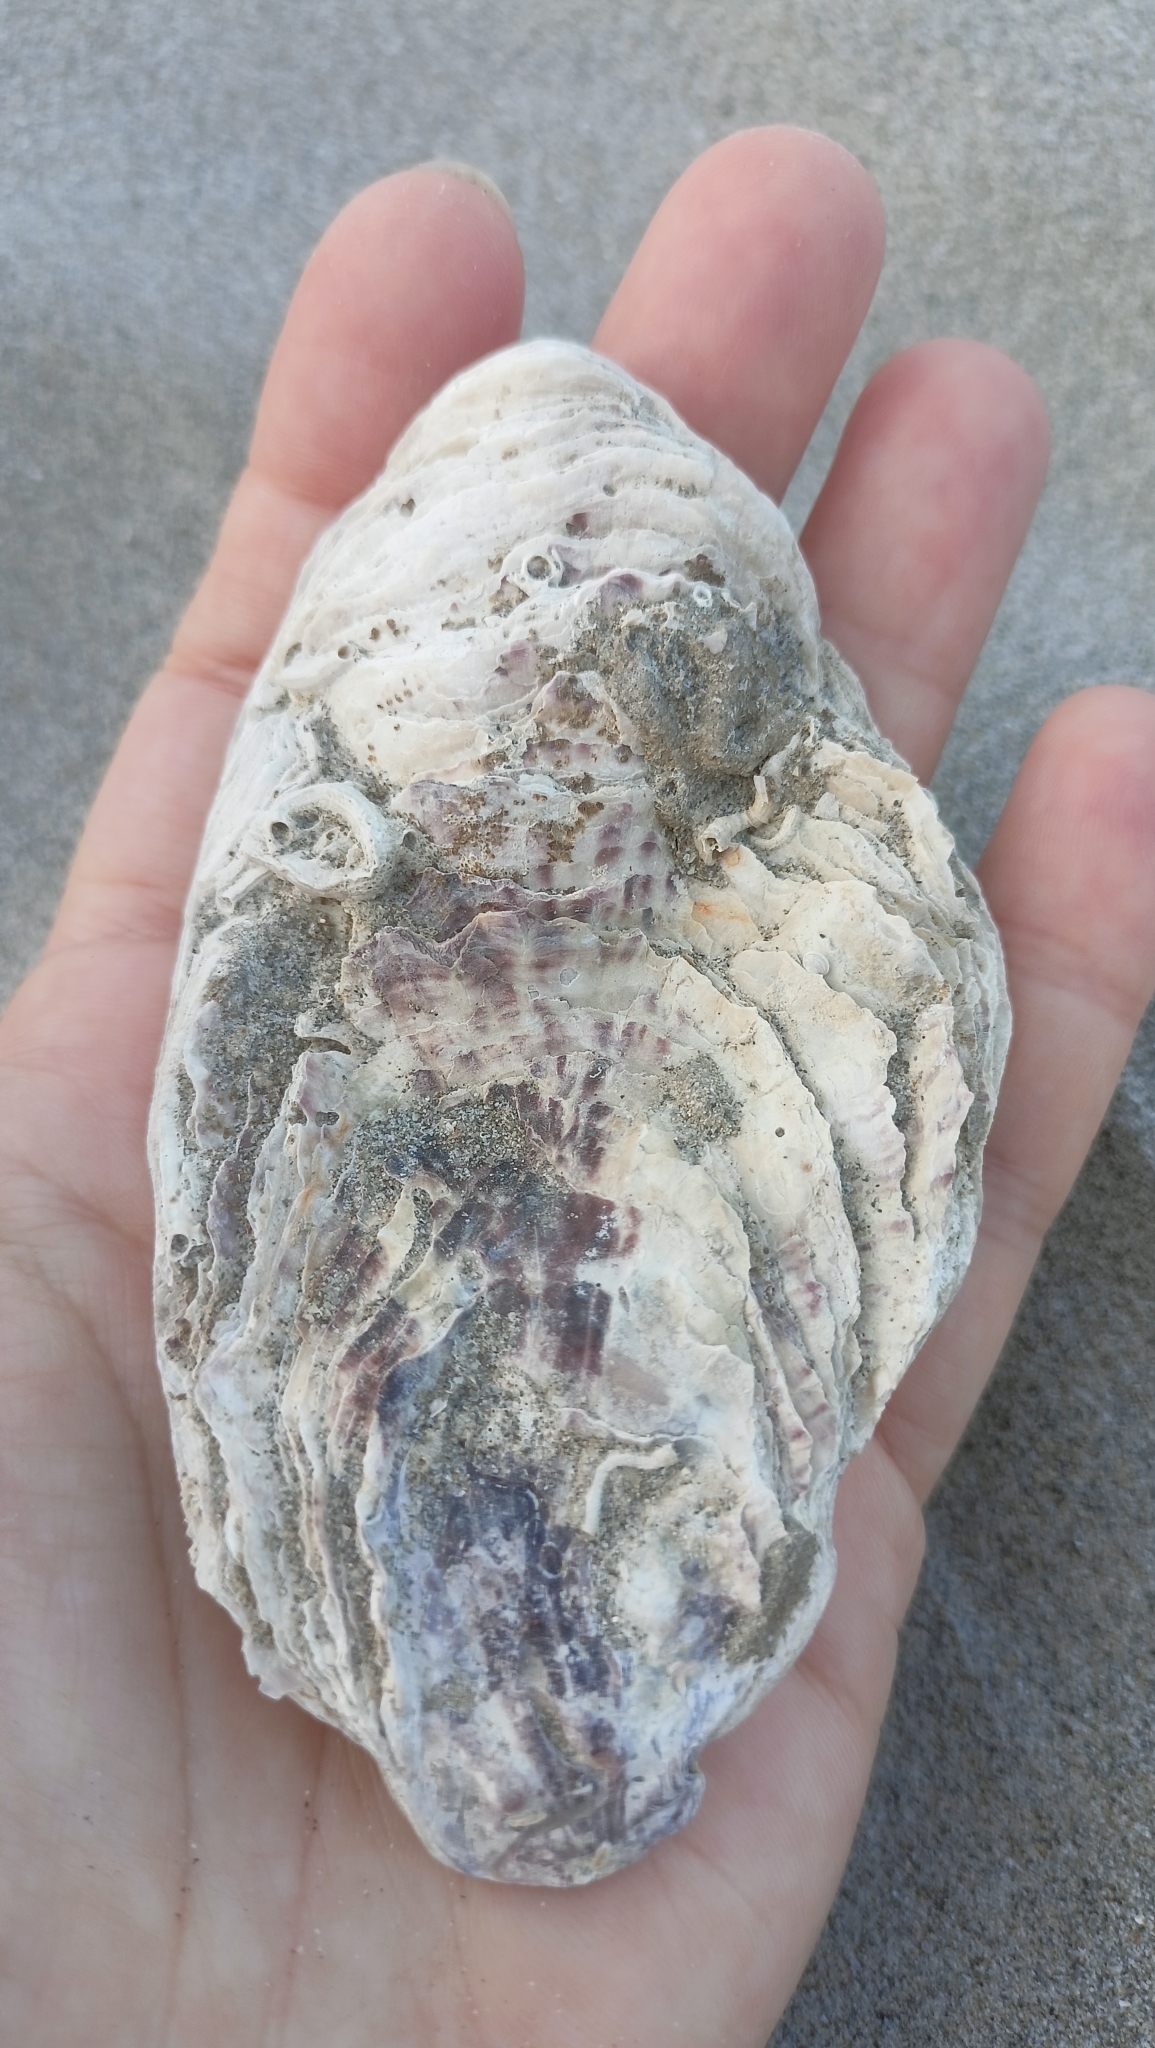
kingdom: Animalia
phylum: Mollusca
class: Bivalvia
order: Ostreida
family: Ostreidae
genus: Magallana
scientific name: Magallana gigas
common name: Pacific oyster
